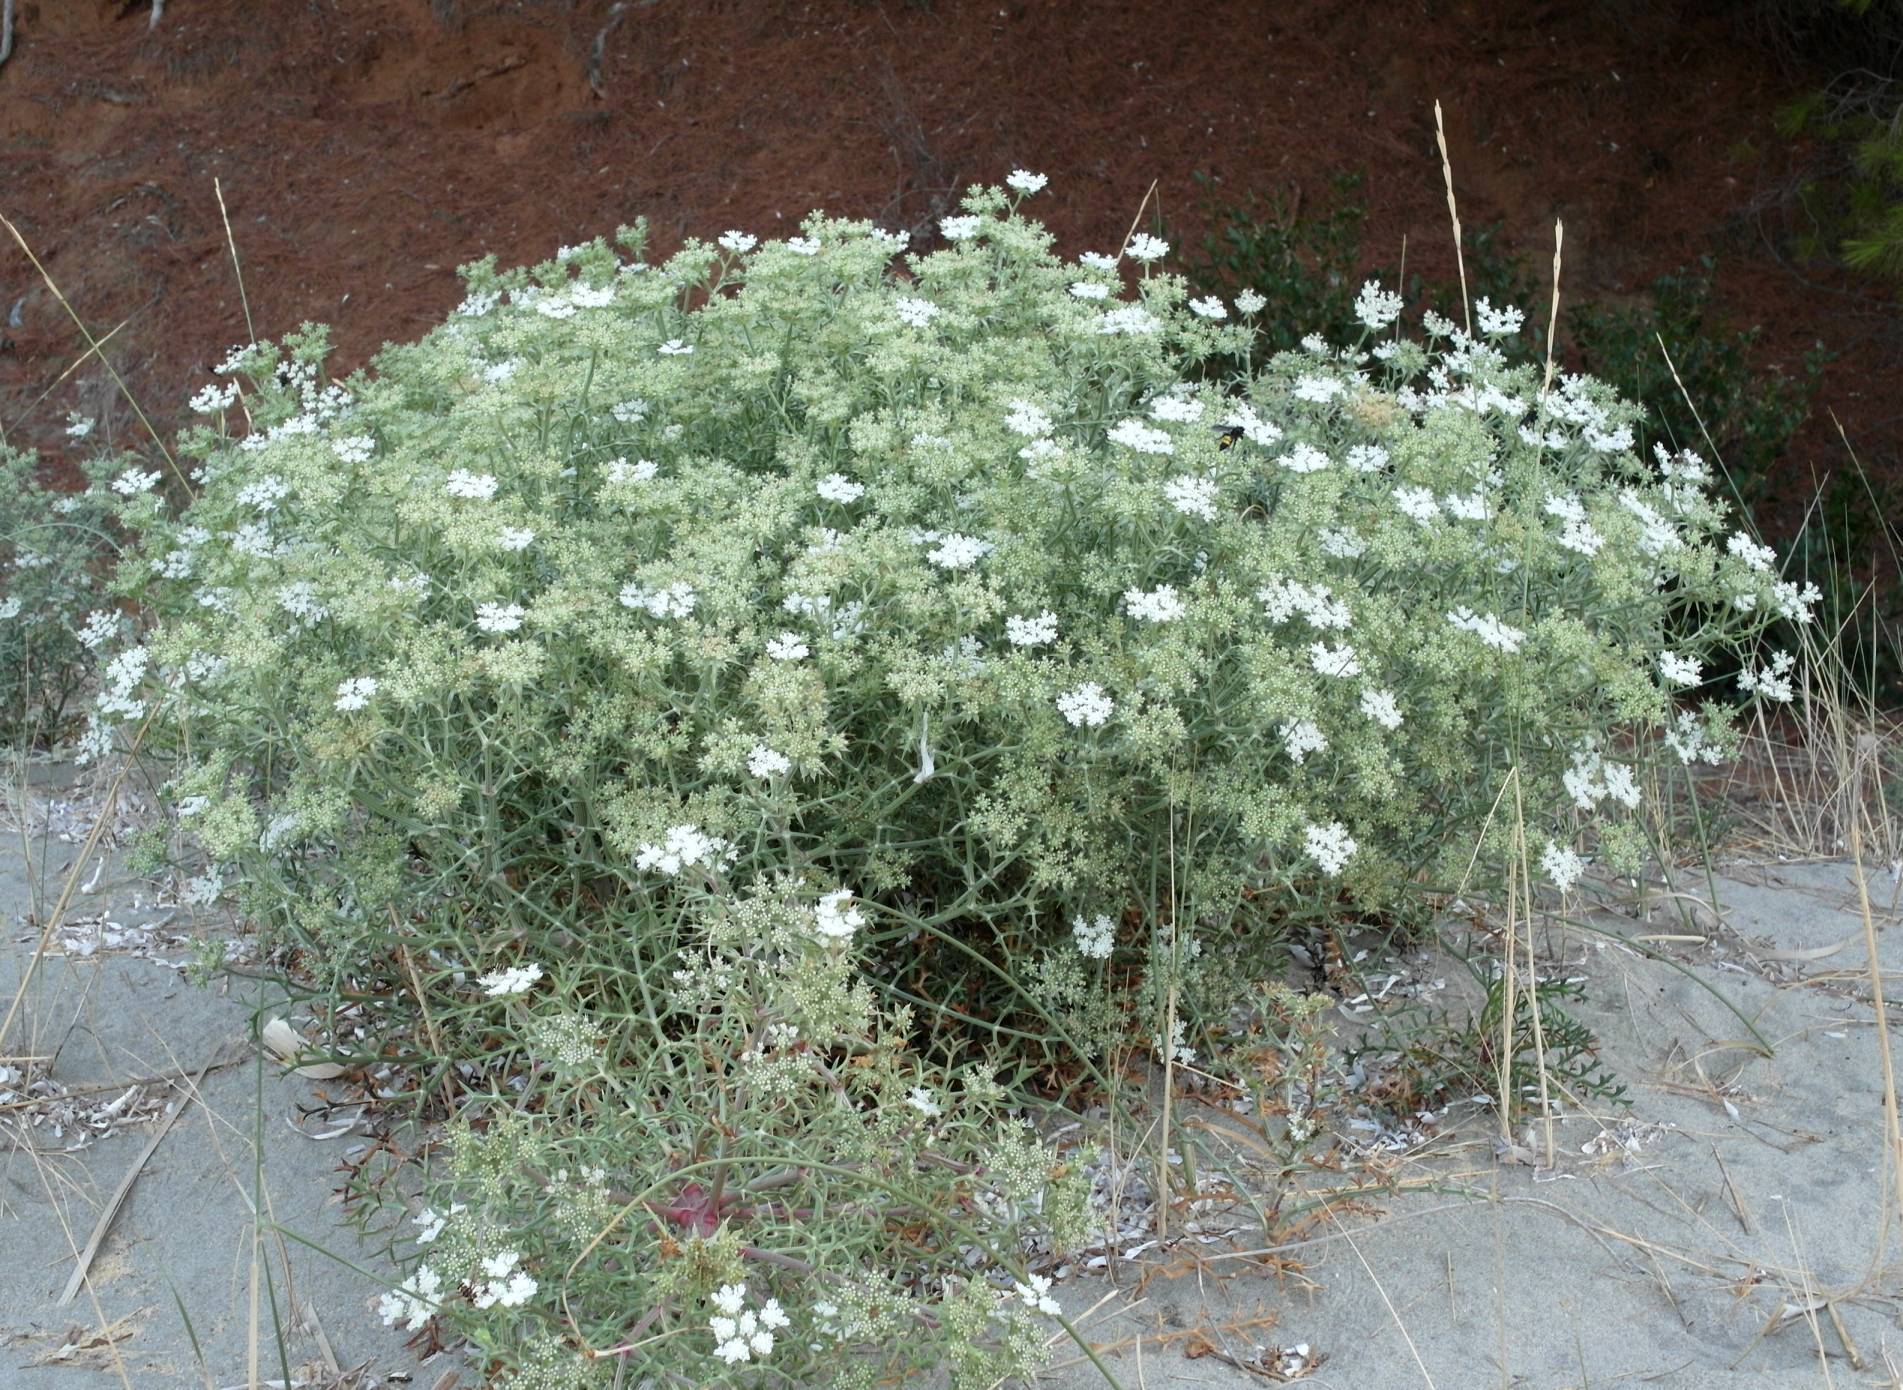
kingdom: Plantae
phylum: Tracheophyta
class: Magnoliopsida
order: Apiales
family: Apiaceae
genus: Echinophora
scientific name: Echinophora spinosa
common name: Prickly samphire
